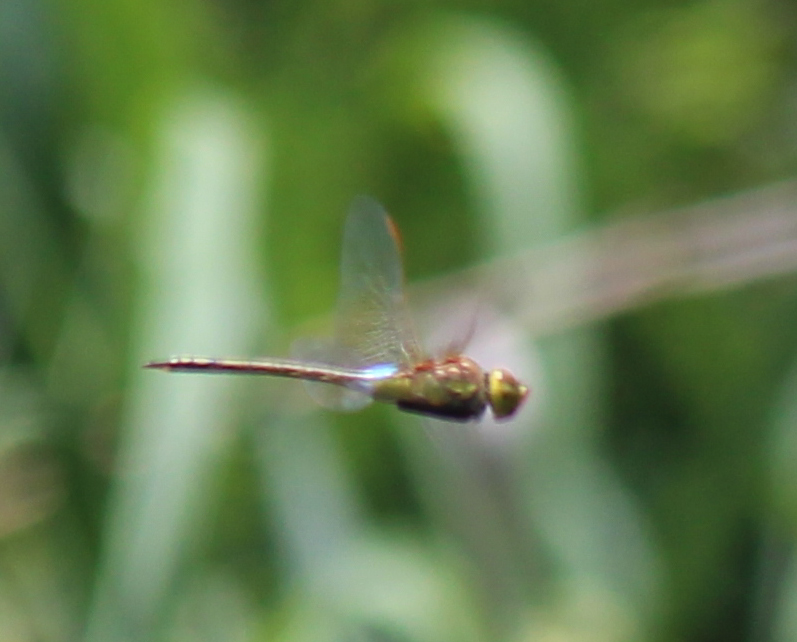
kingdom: Animalia
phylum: Arthropoda
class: Insecta
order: Odonata
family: Aeshnidae
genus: Anax
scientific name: Anax ephippiger
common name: Vagrant emperor
